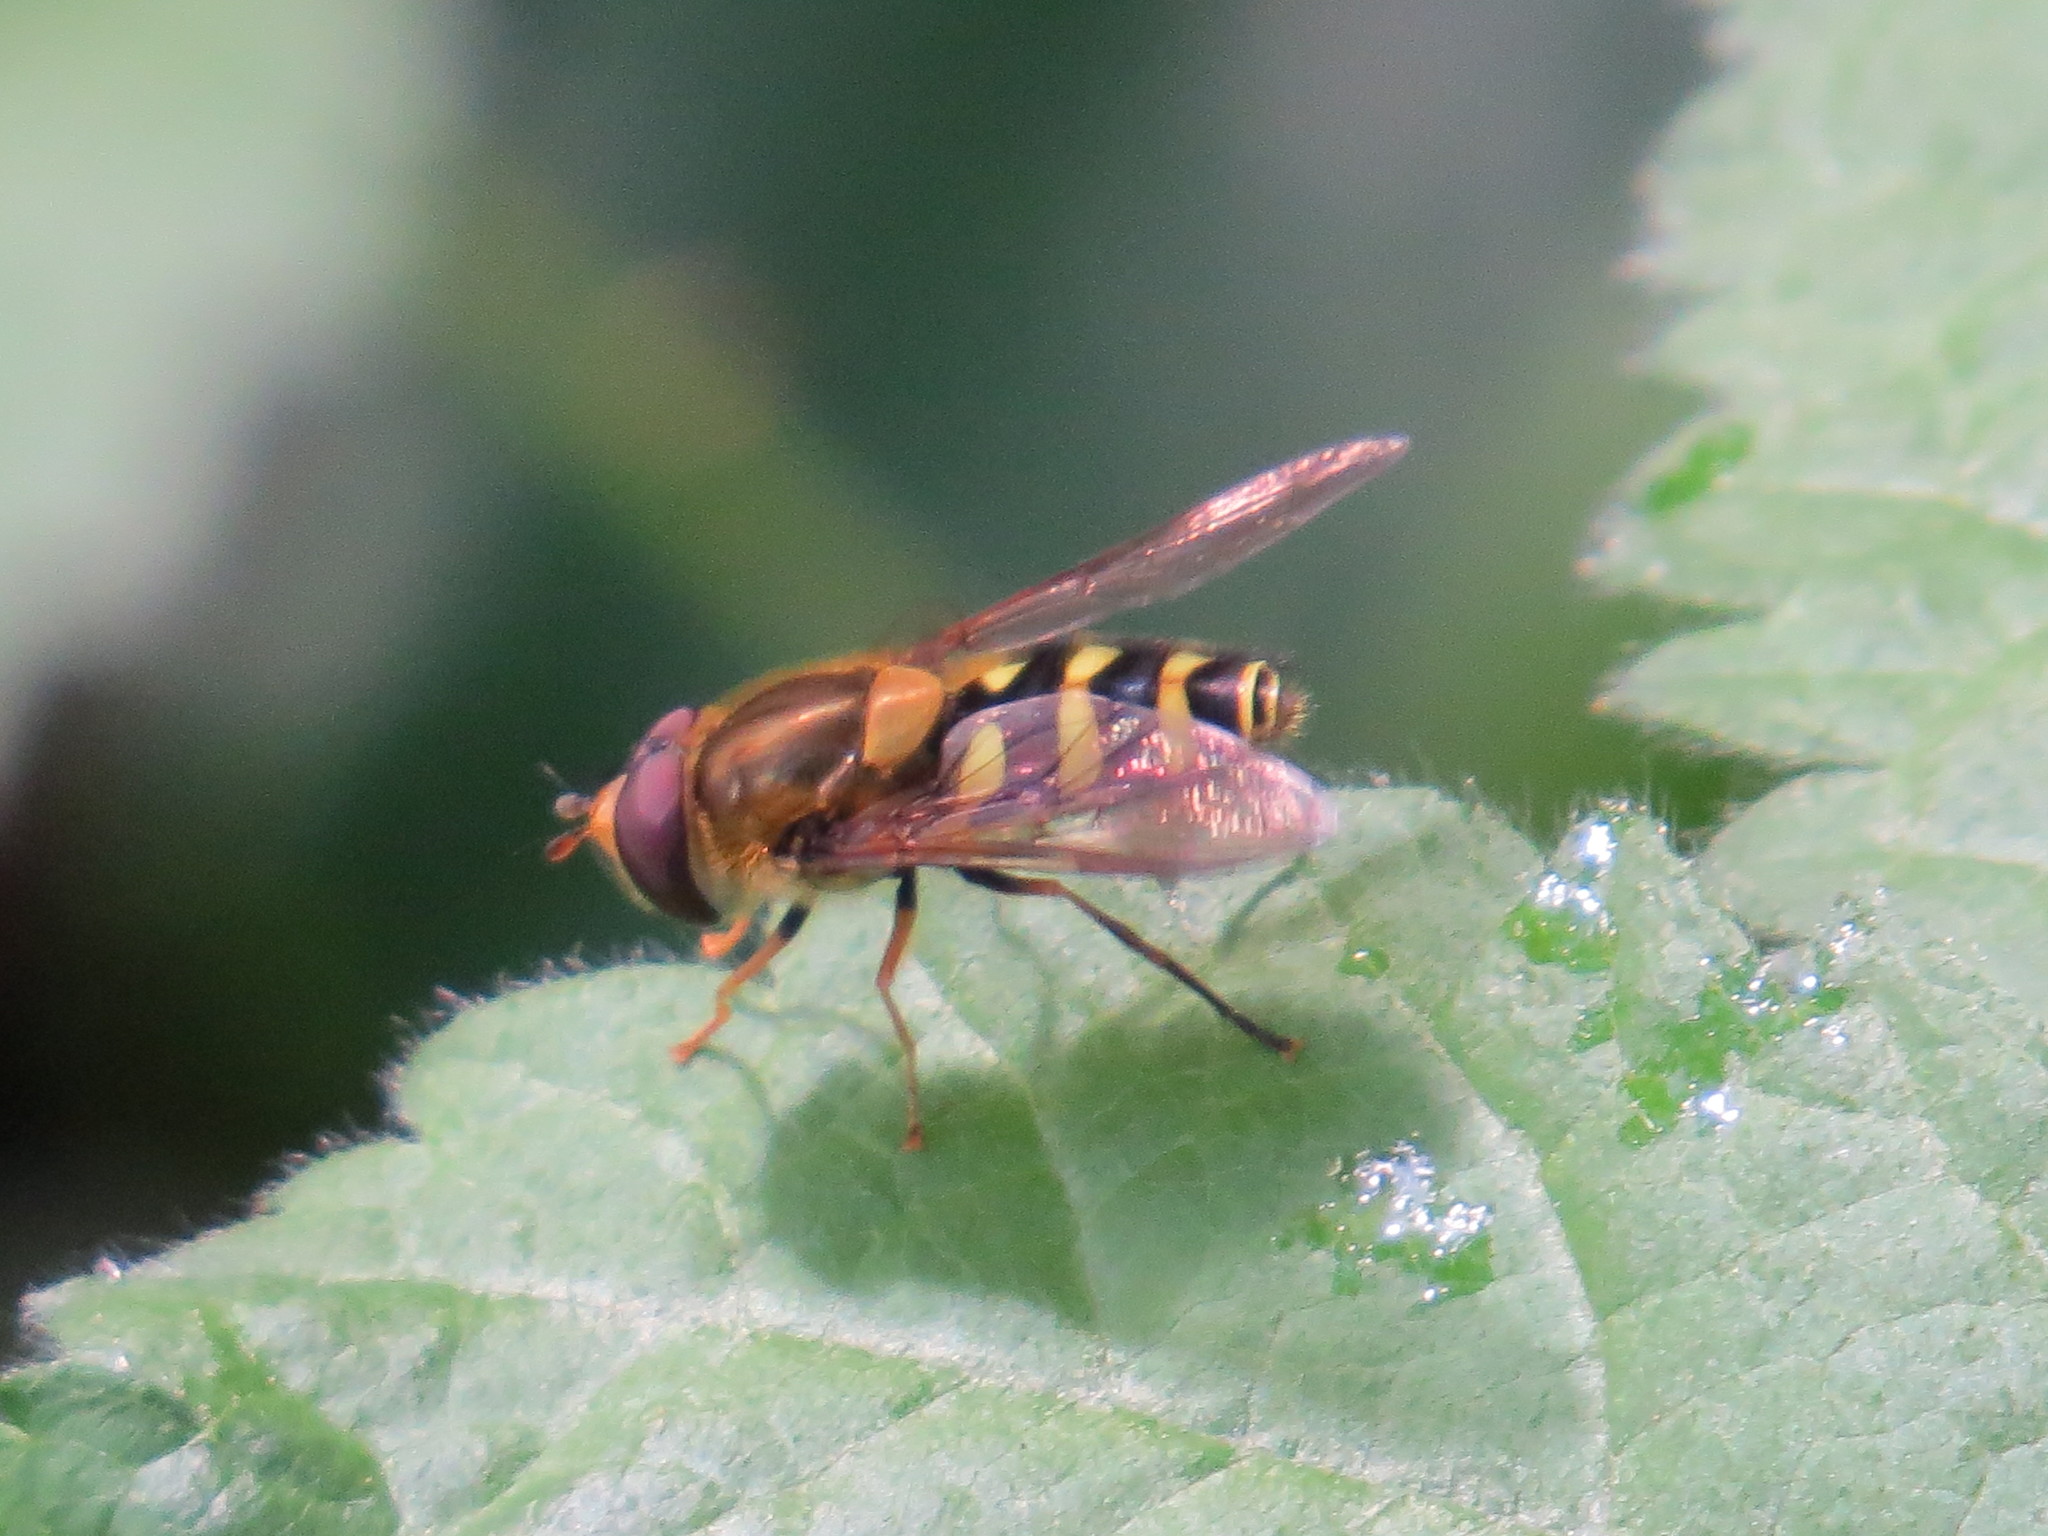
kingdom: Animalia
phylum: Arthropoda
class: Insecta
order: Diptera
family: Syrphidae
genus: Syrphus
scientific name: Syrphus opinator
